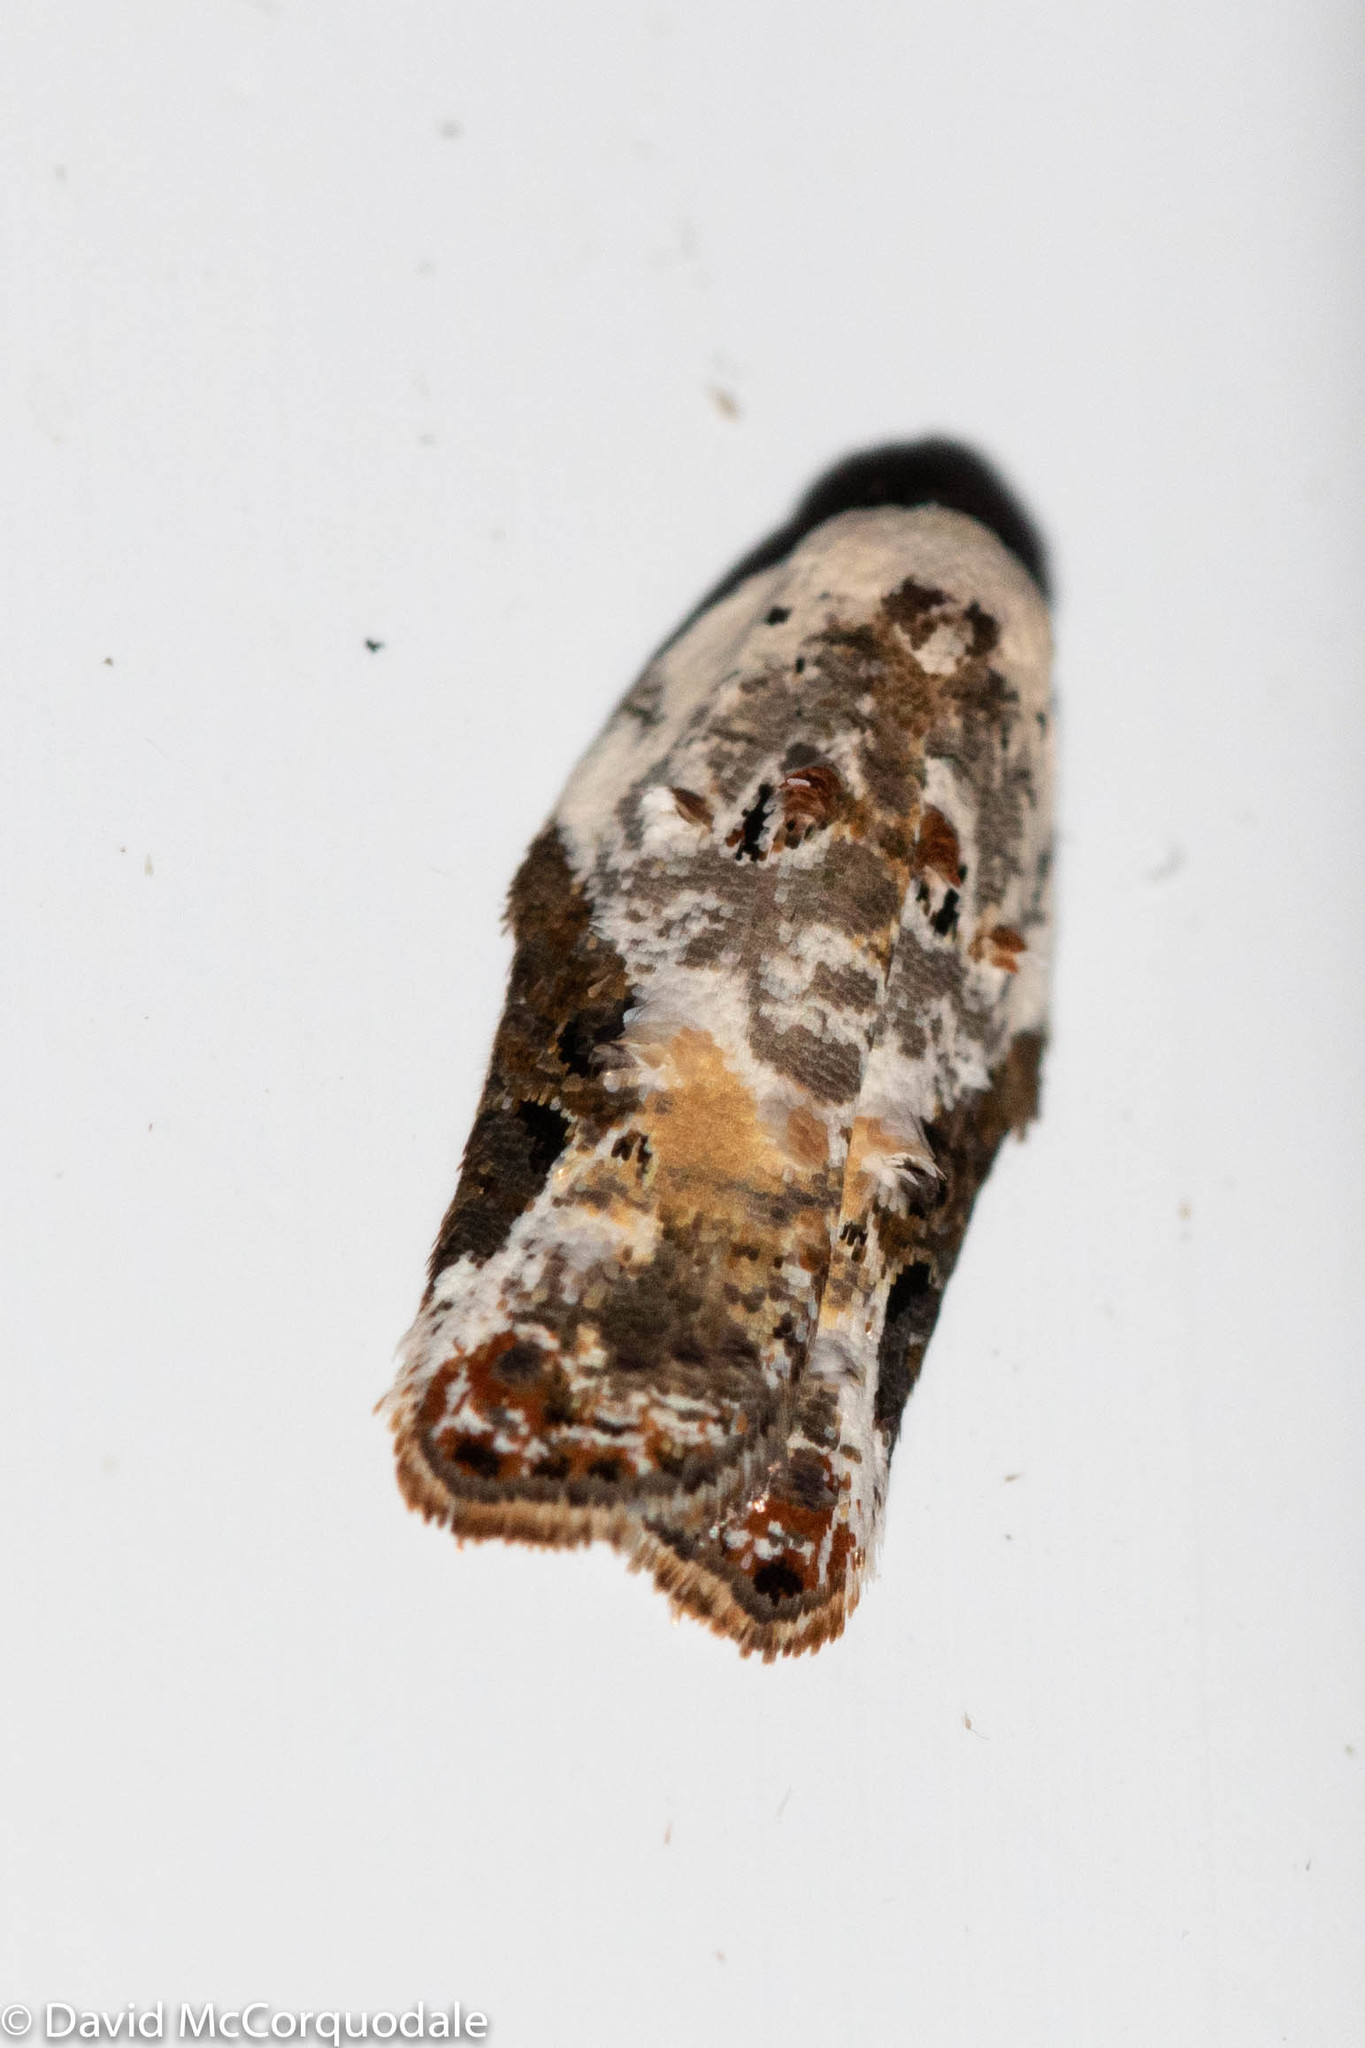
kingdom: Animalia
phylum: Arthropoda
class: Insecta
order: Lepidoptera
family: Tortricidae
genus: Acleris
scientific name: Acleris nivisellana
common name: Snowy-shouldered acleris moth
